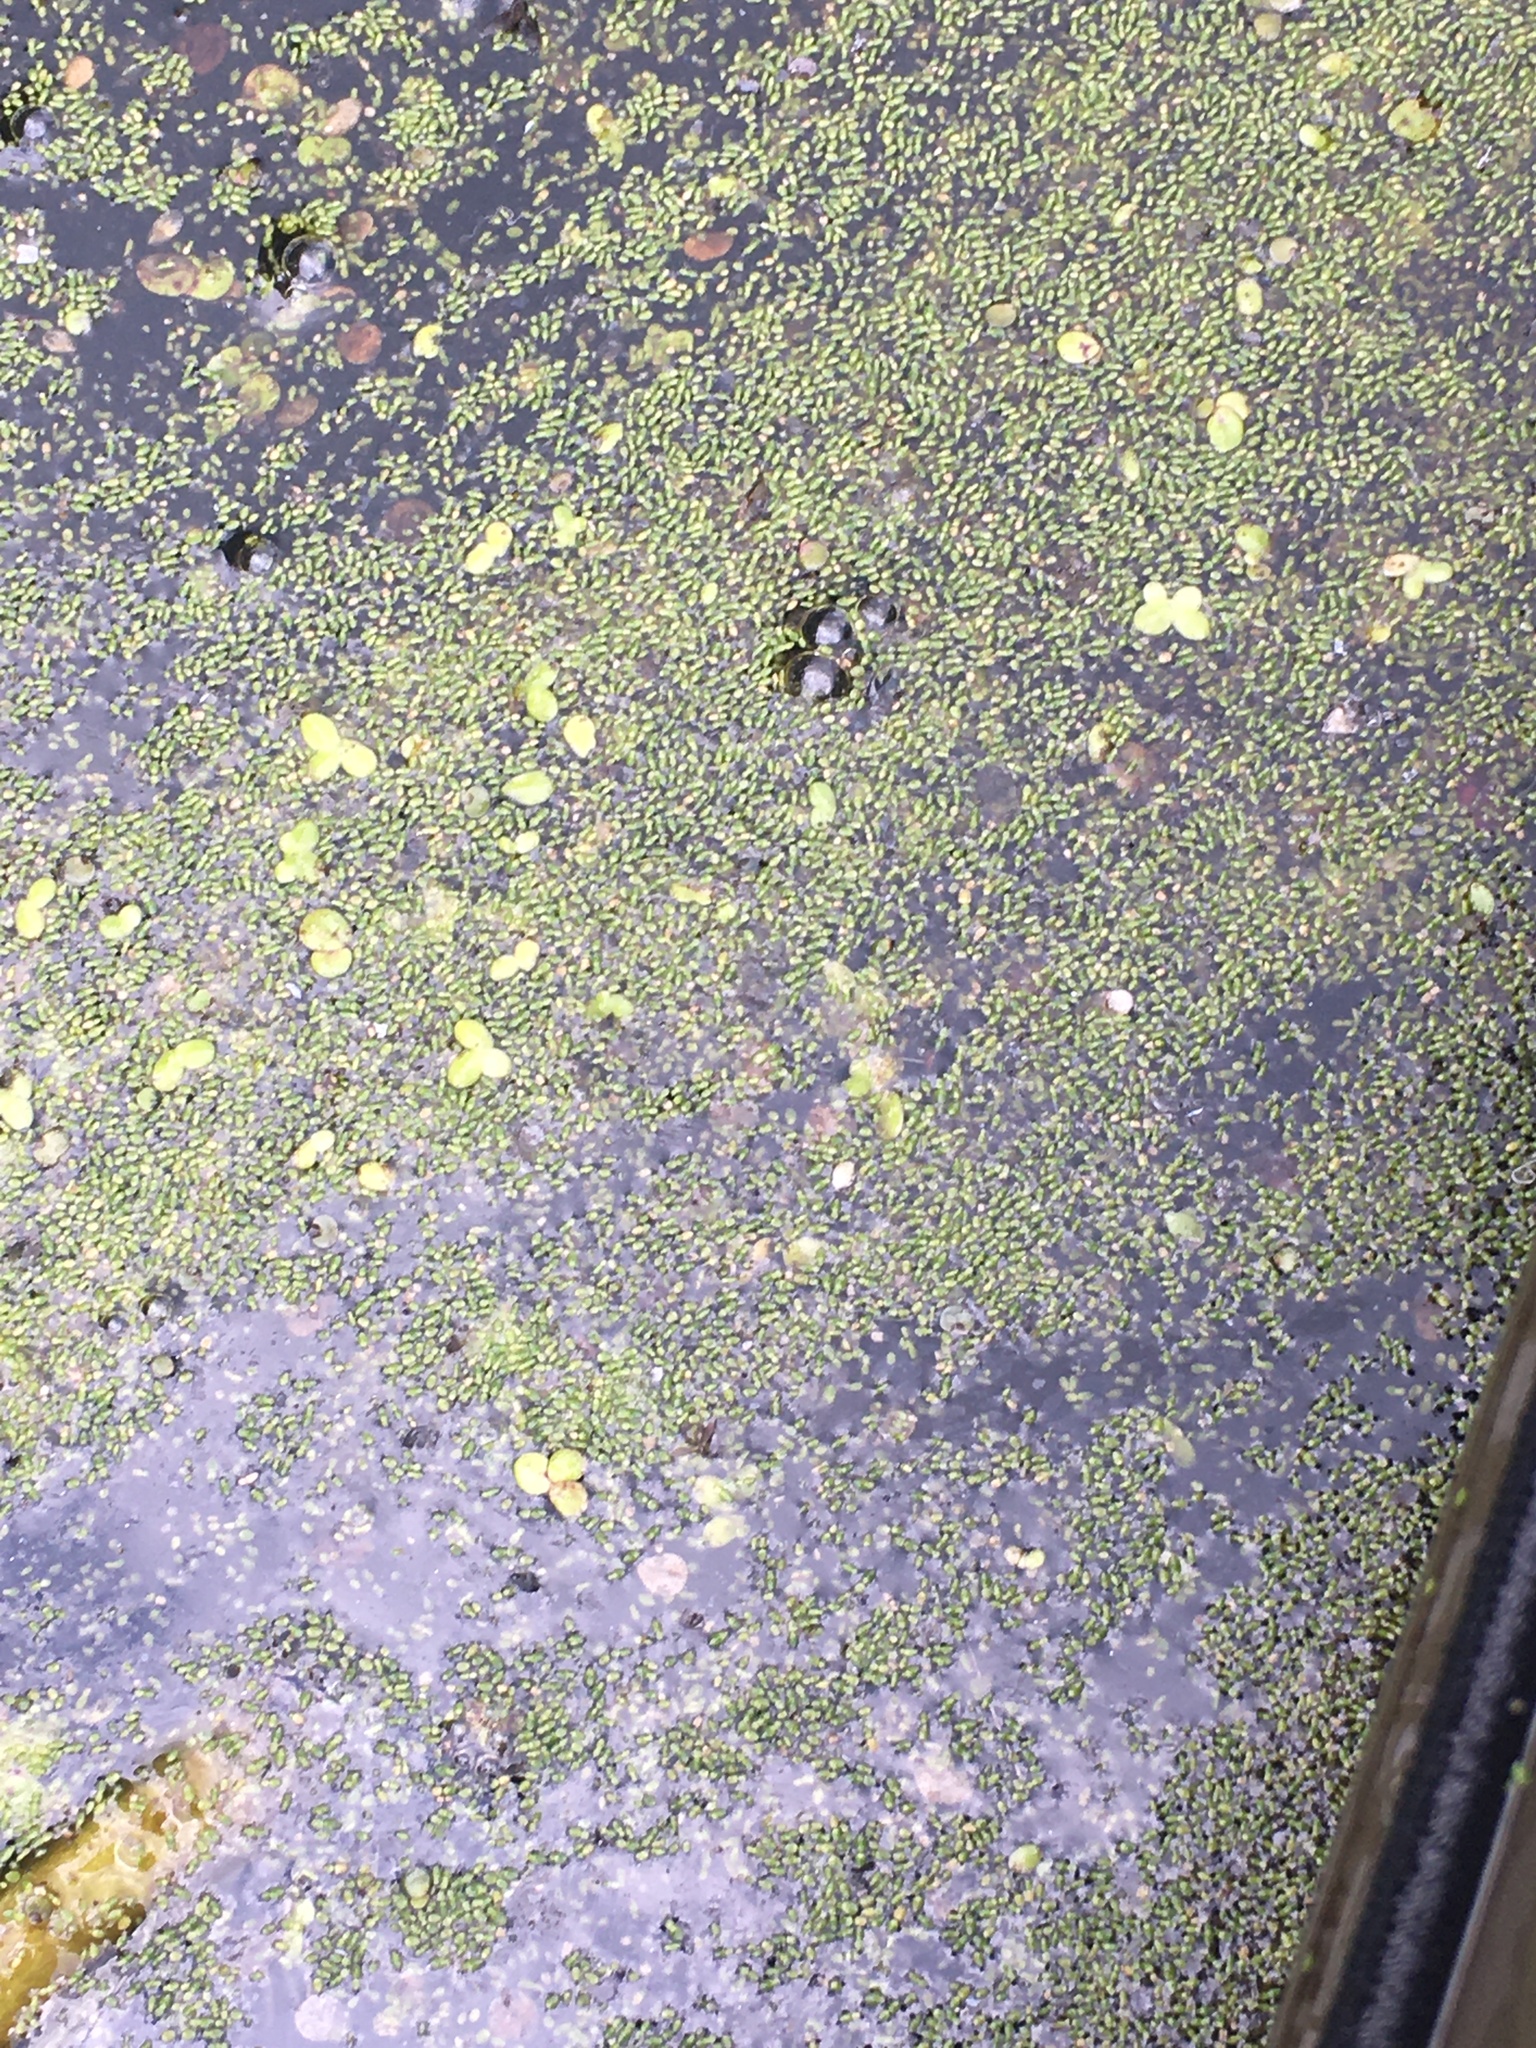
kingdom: Plantae
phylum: Tracheophyta
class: Liliopsida
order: Alismatales
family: Araceae
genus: Wolffia
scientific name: Wolffia brasiliensis
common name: Brazilian watermeal
